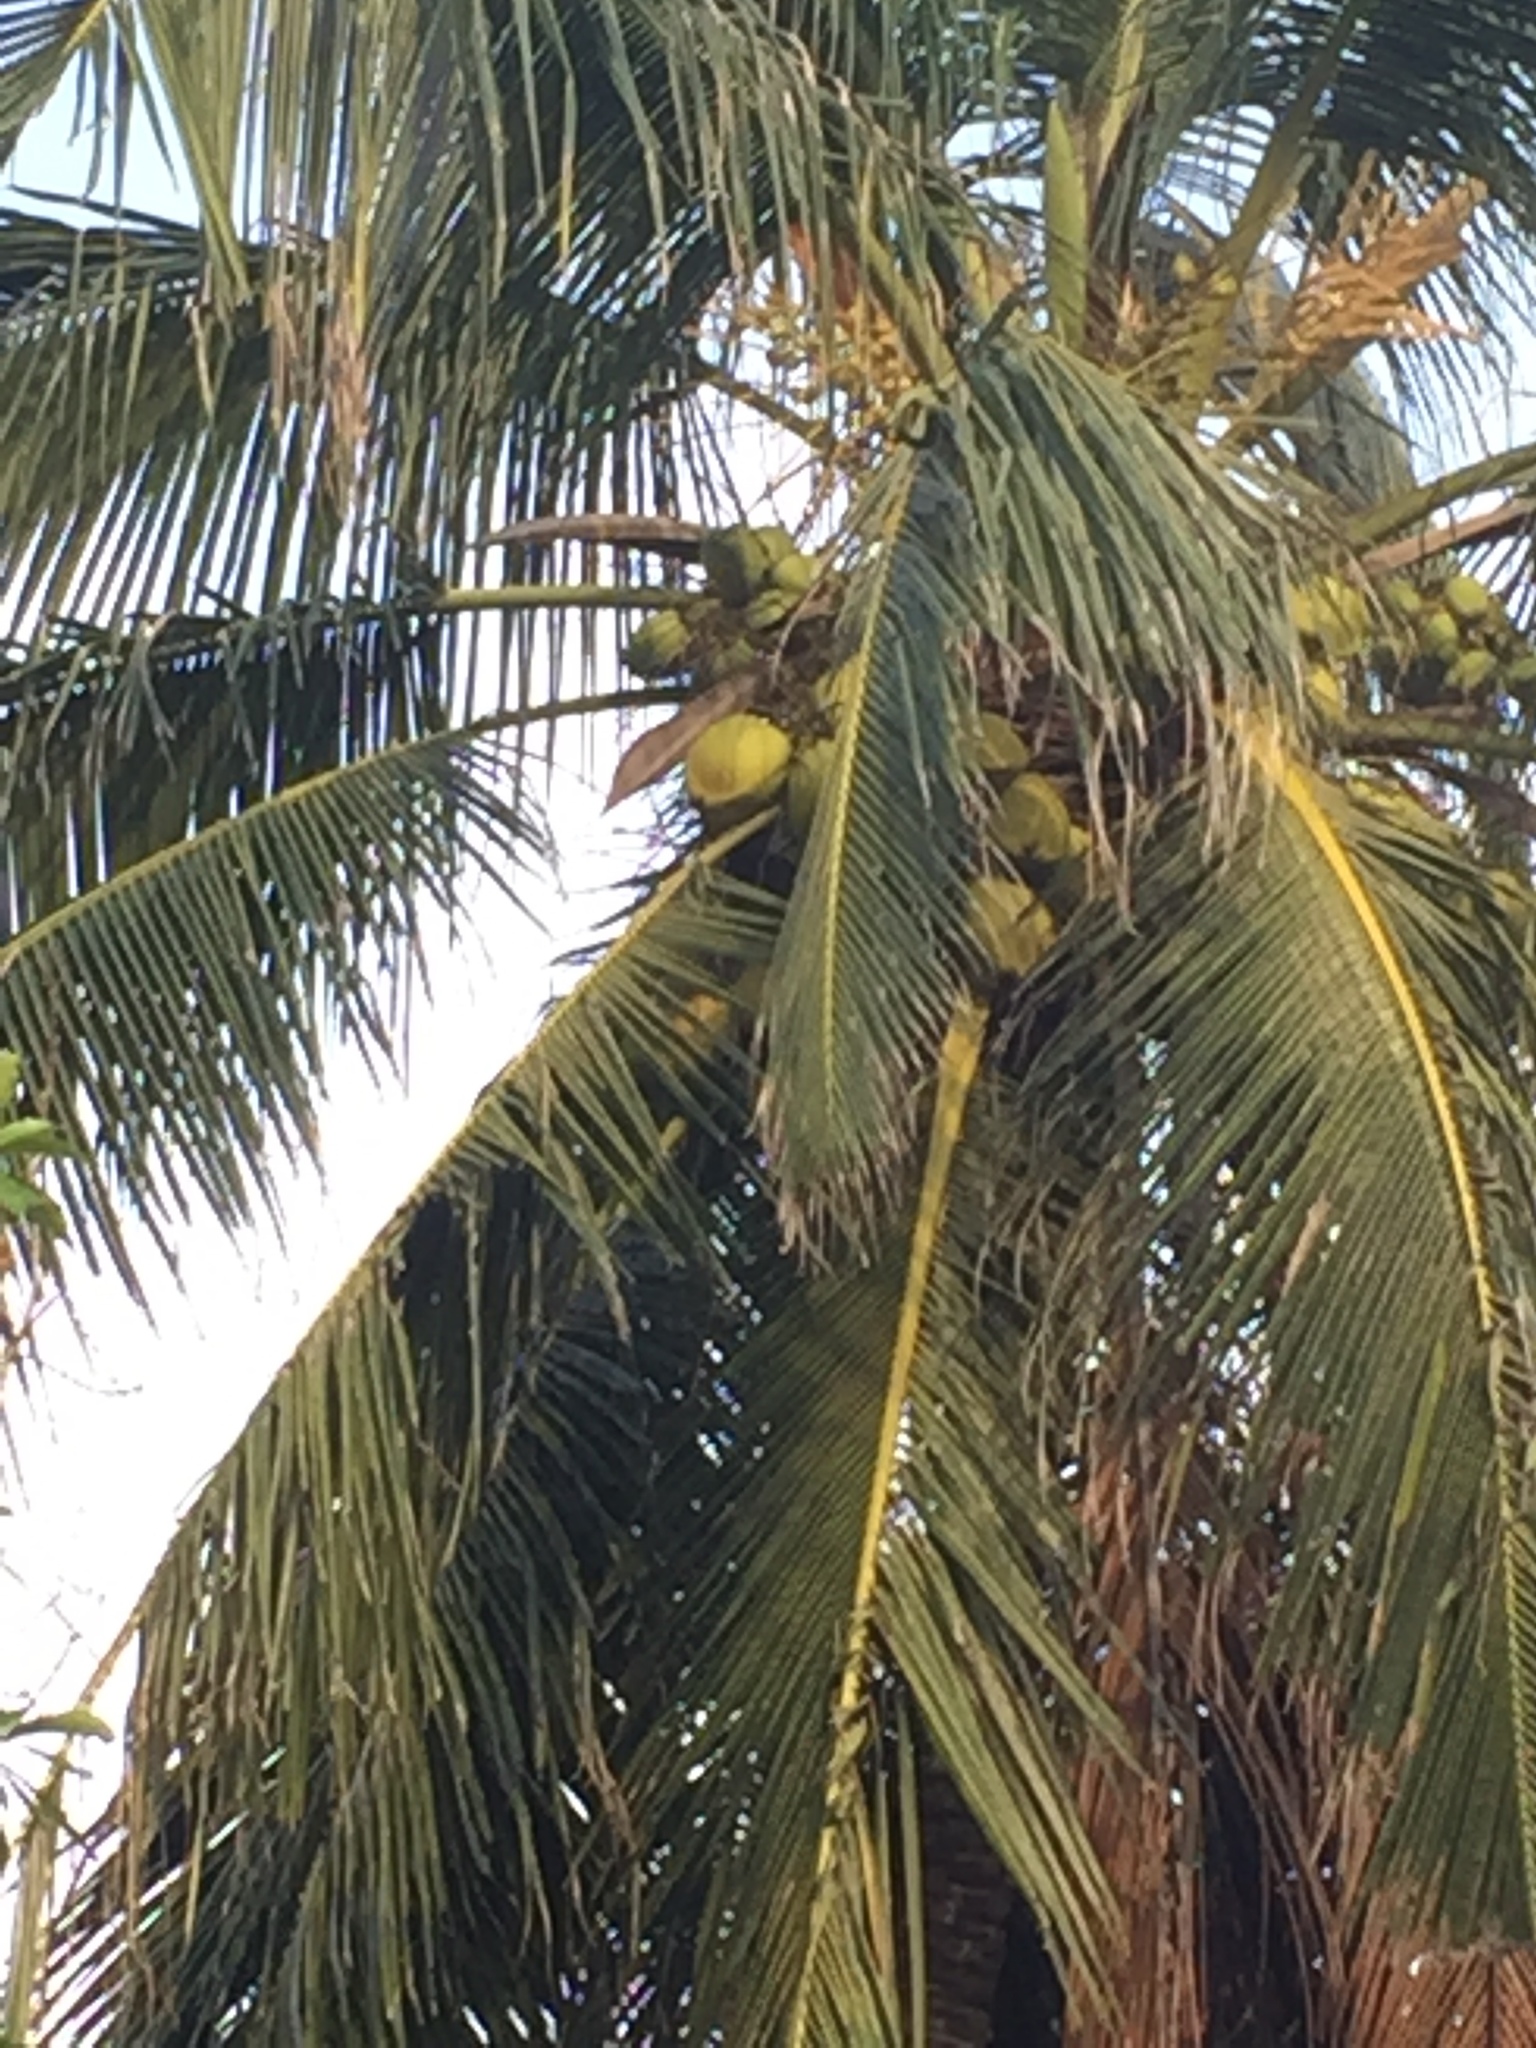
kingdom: Plantae
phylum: Tracheophyta
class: Liliopsida
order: Arecales
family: Arecaceae
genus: Cocos
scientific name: Cocos nucifera
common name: Coconut palm
